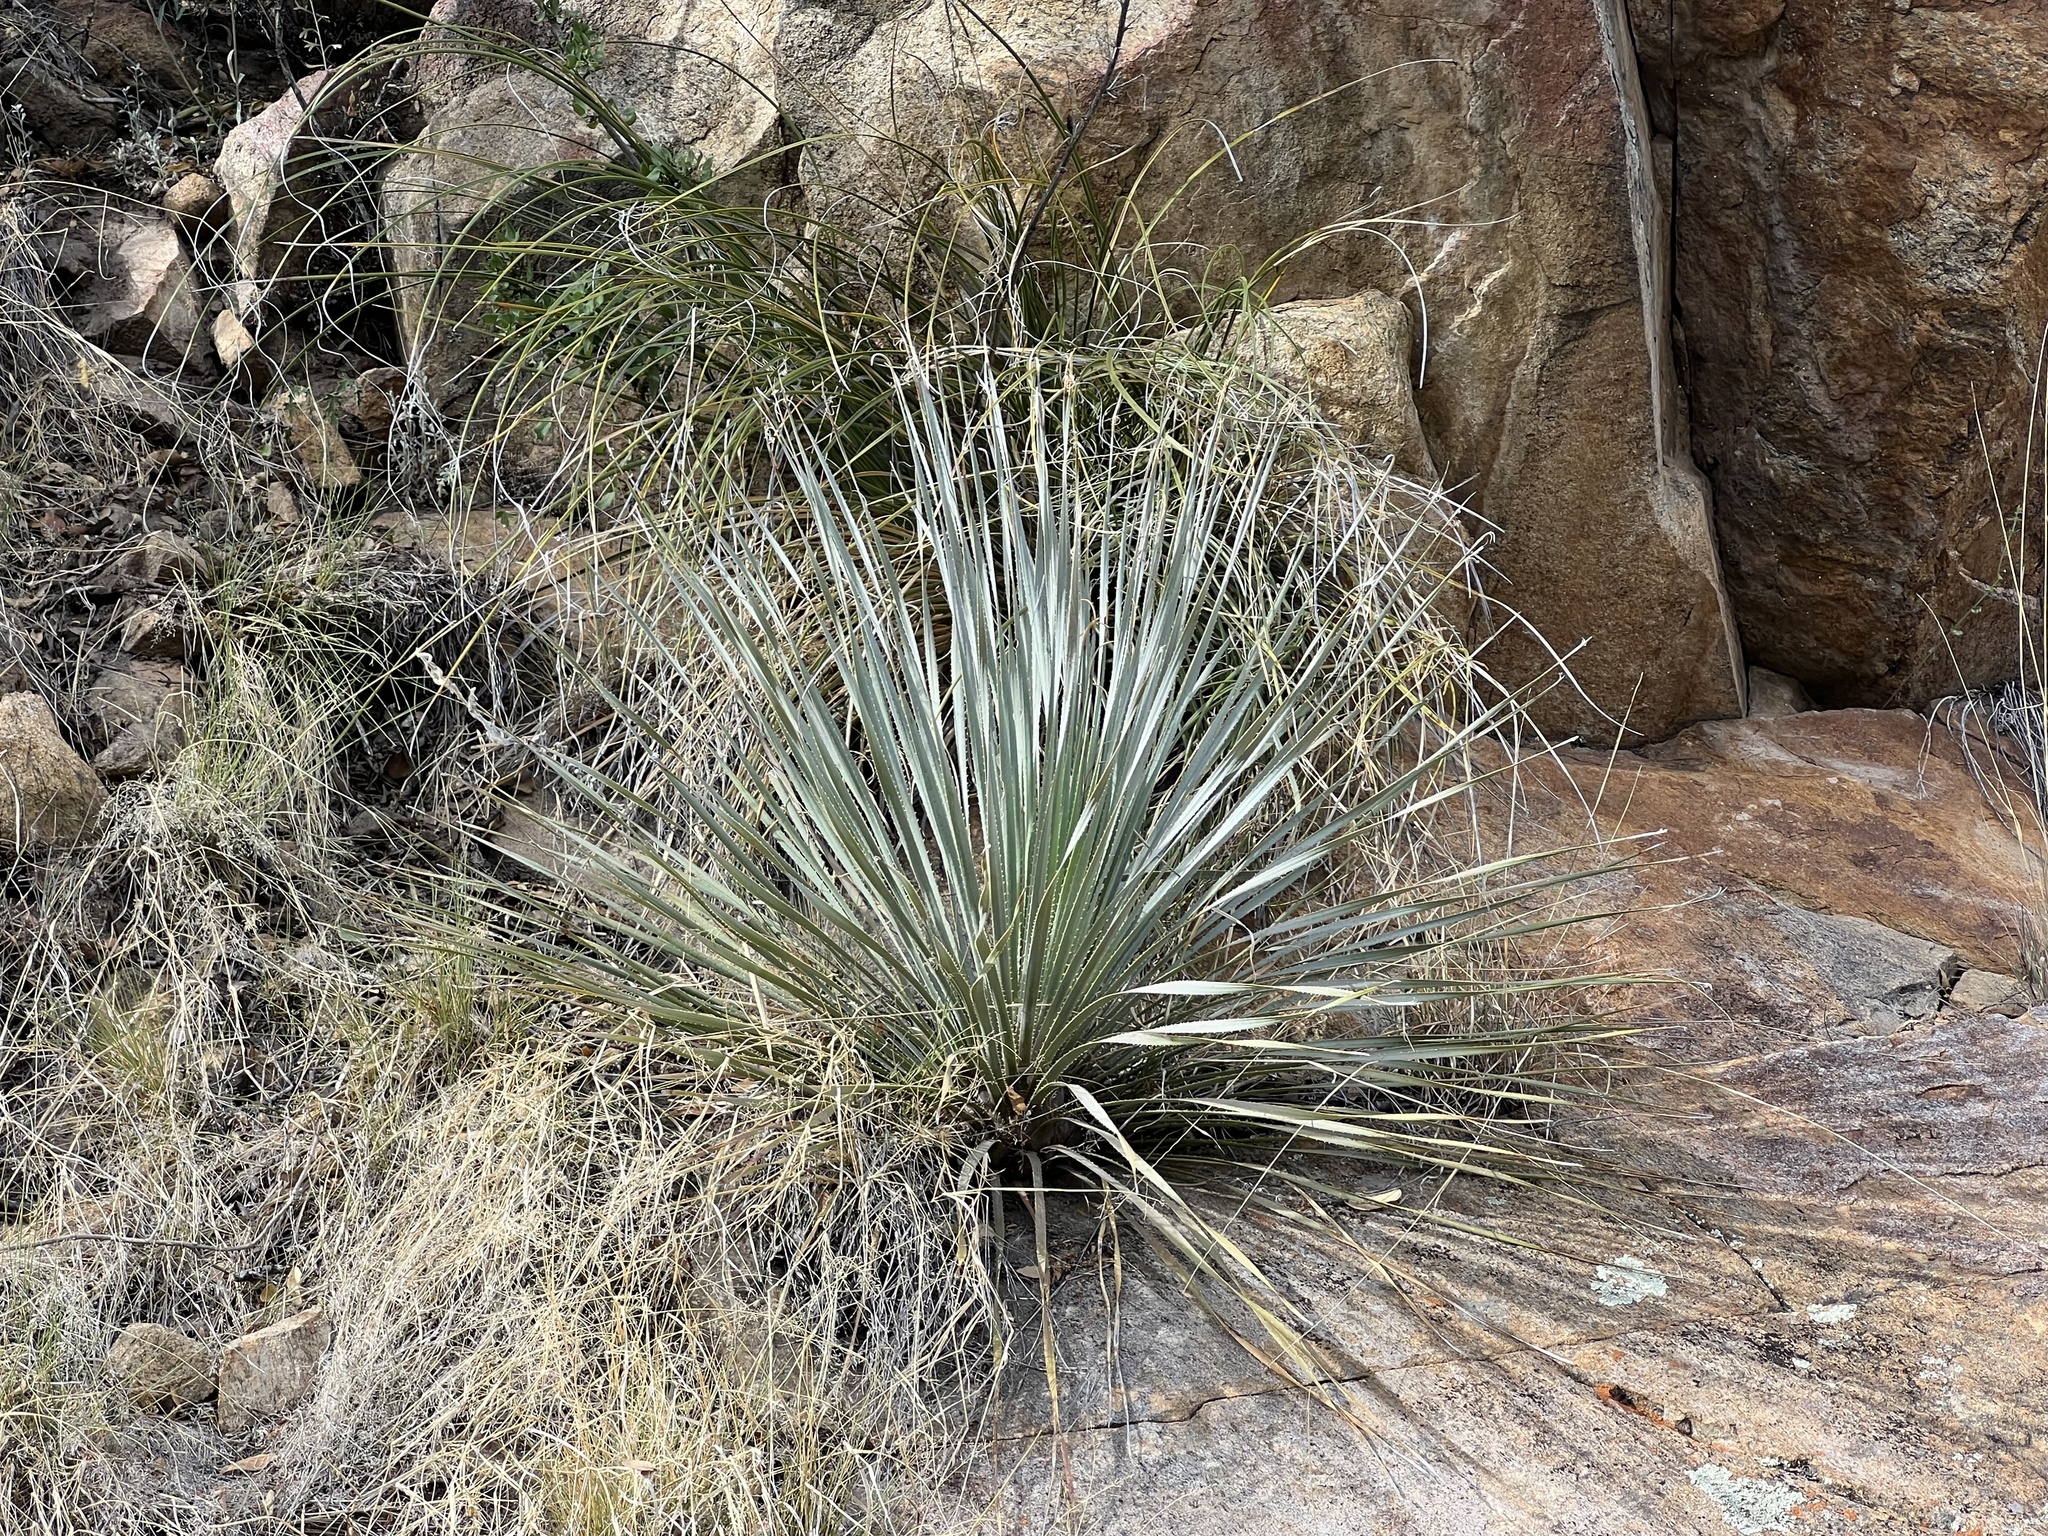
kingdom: Plantae
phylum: Tracheophyta
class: Liliopsida
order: Asparagales
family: Asparagaceae
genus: Dasylirion
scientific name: Dasylirion wheeleri
